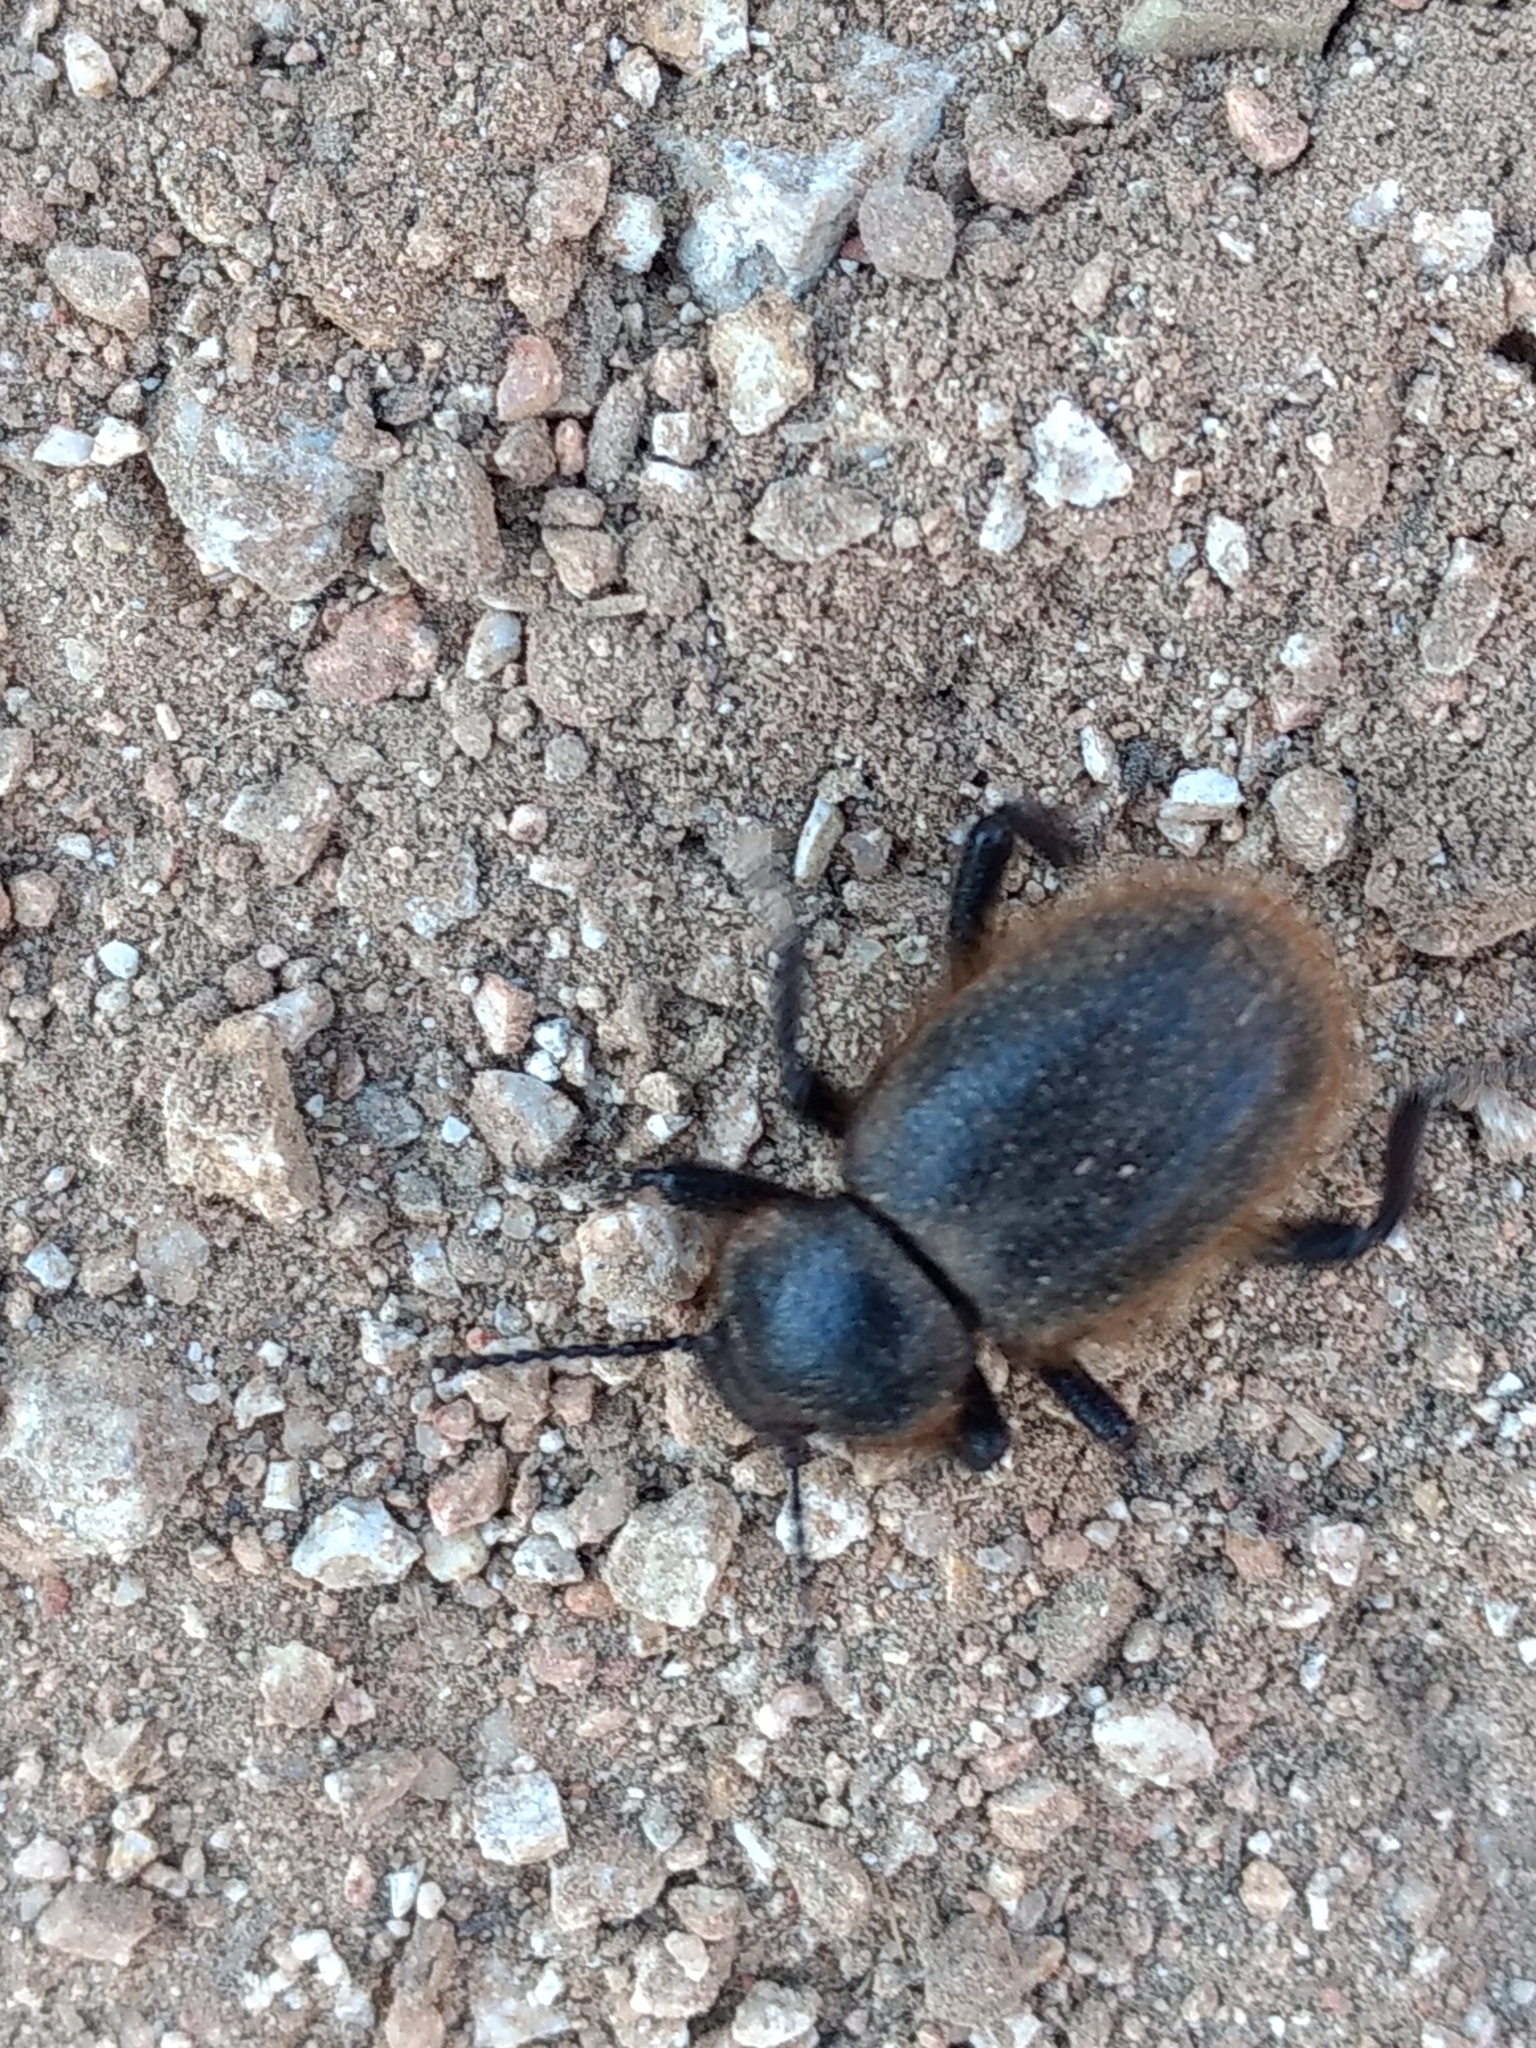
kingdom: Animalia
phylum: Arthropoda
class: Insecta
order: Coleoptera
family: Tenebrionidae
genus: Eleodes
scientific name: Eleodes osculans
